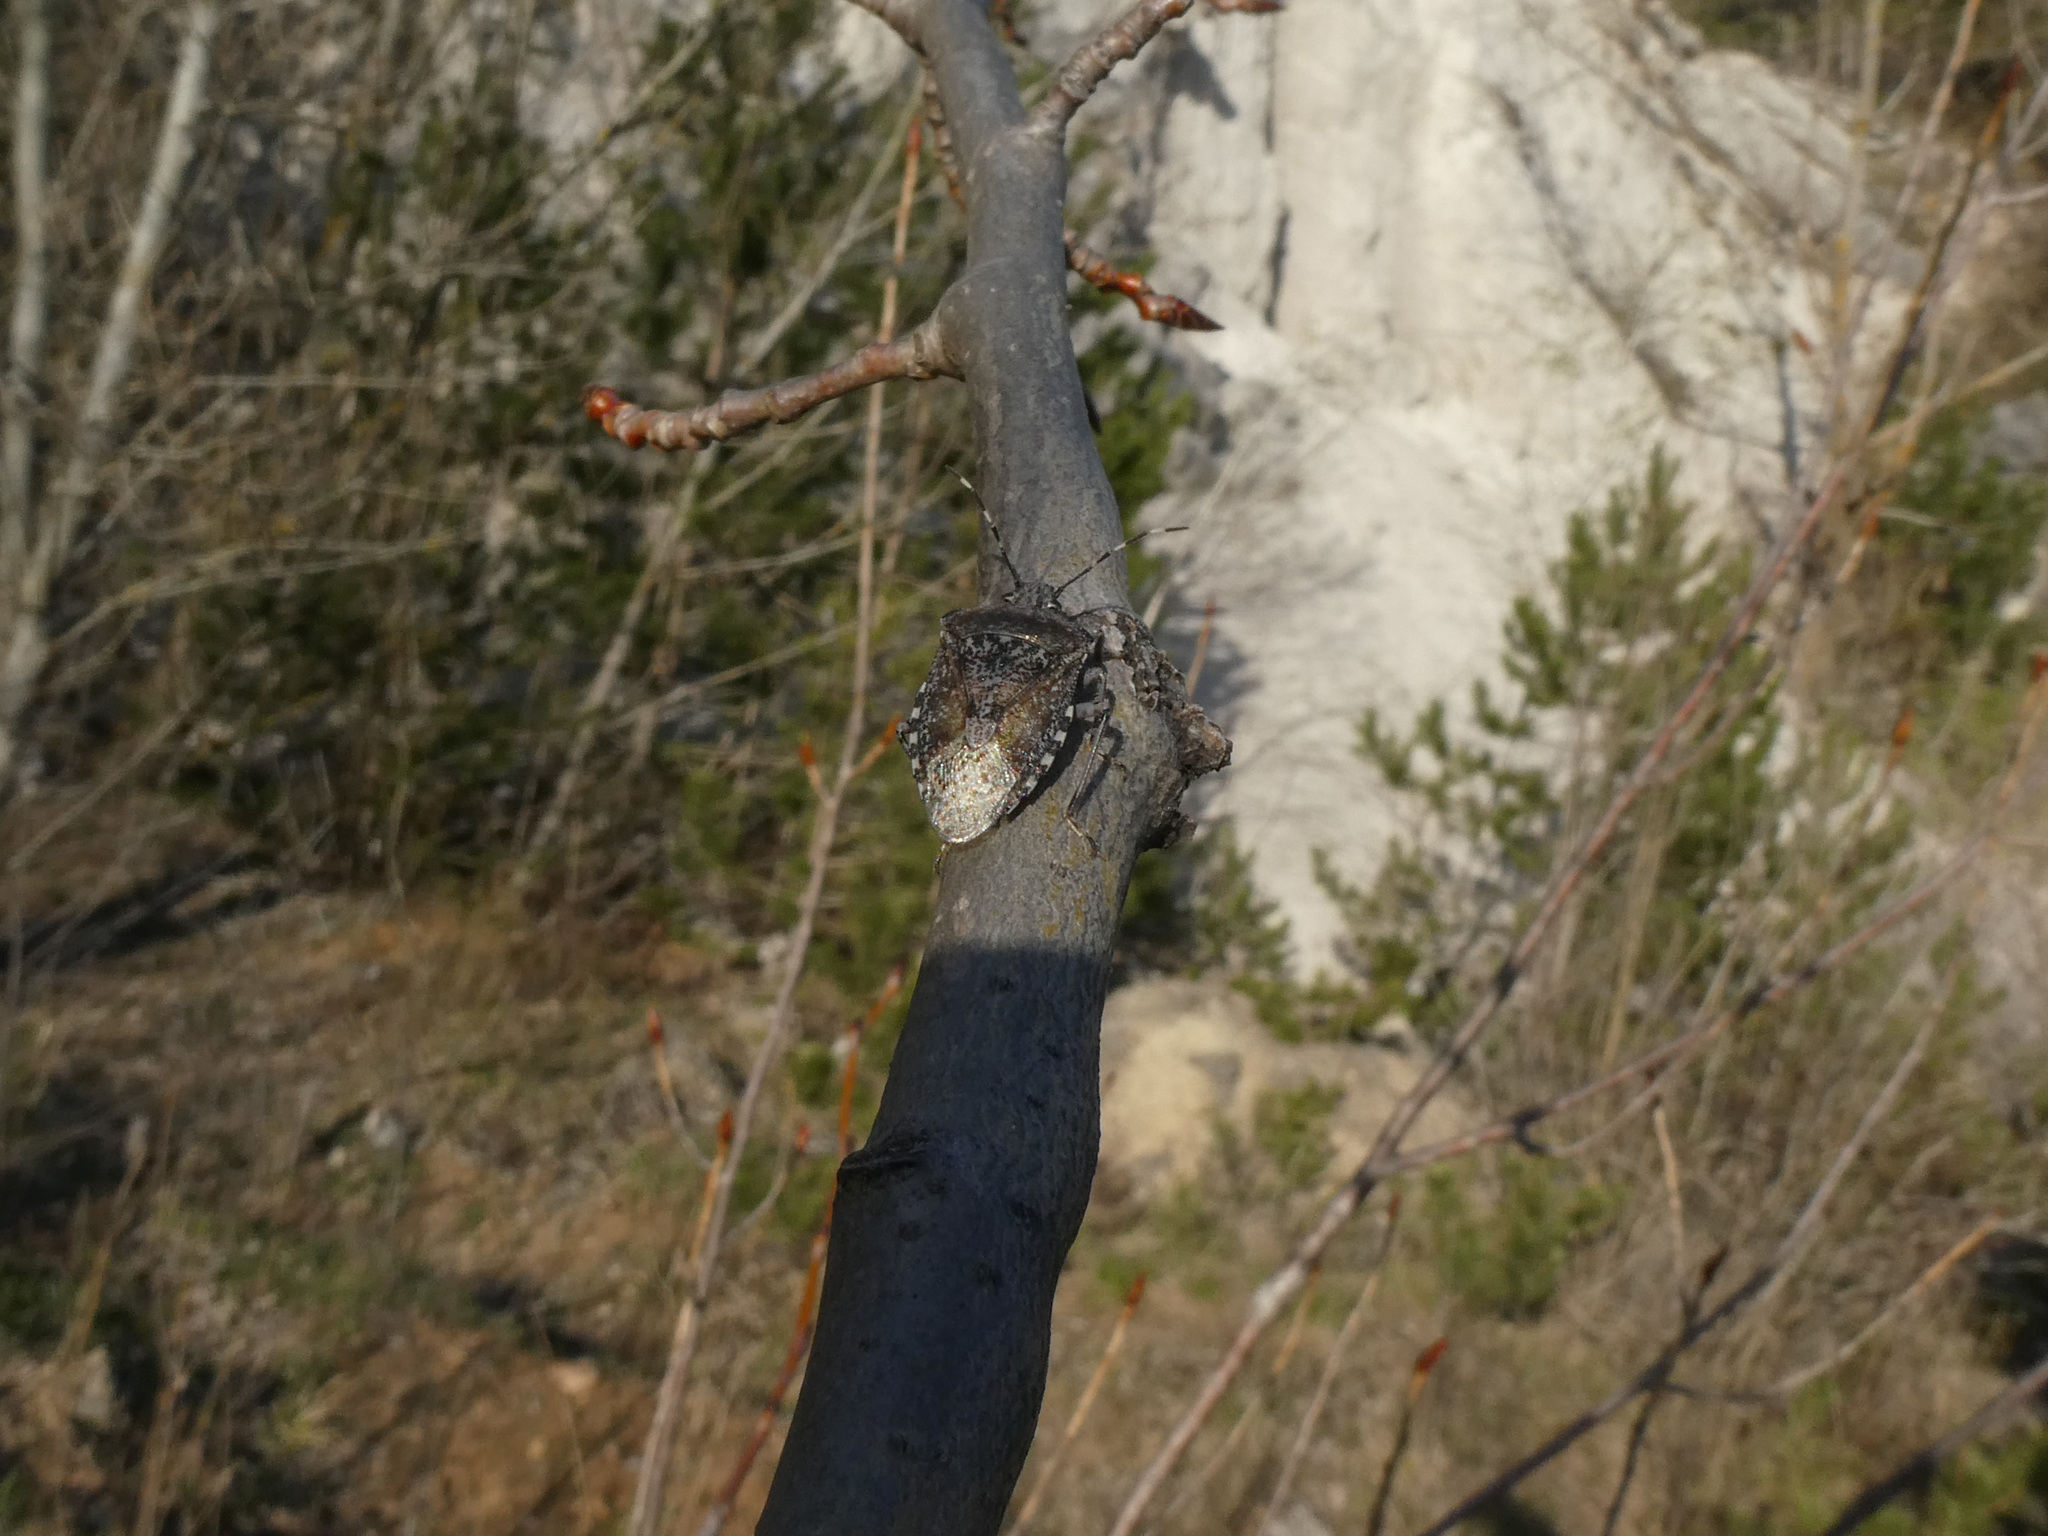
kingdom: Animalia
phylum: Arthropoda
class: Insecta
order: Hemiptera
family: Pentatomidae
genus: Rhaphigaster
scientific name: Rhaphigaster nebulosa
